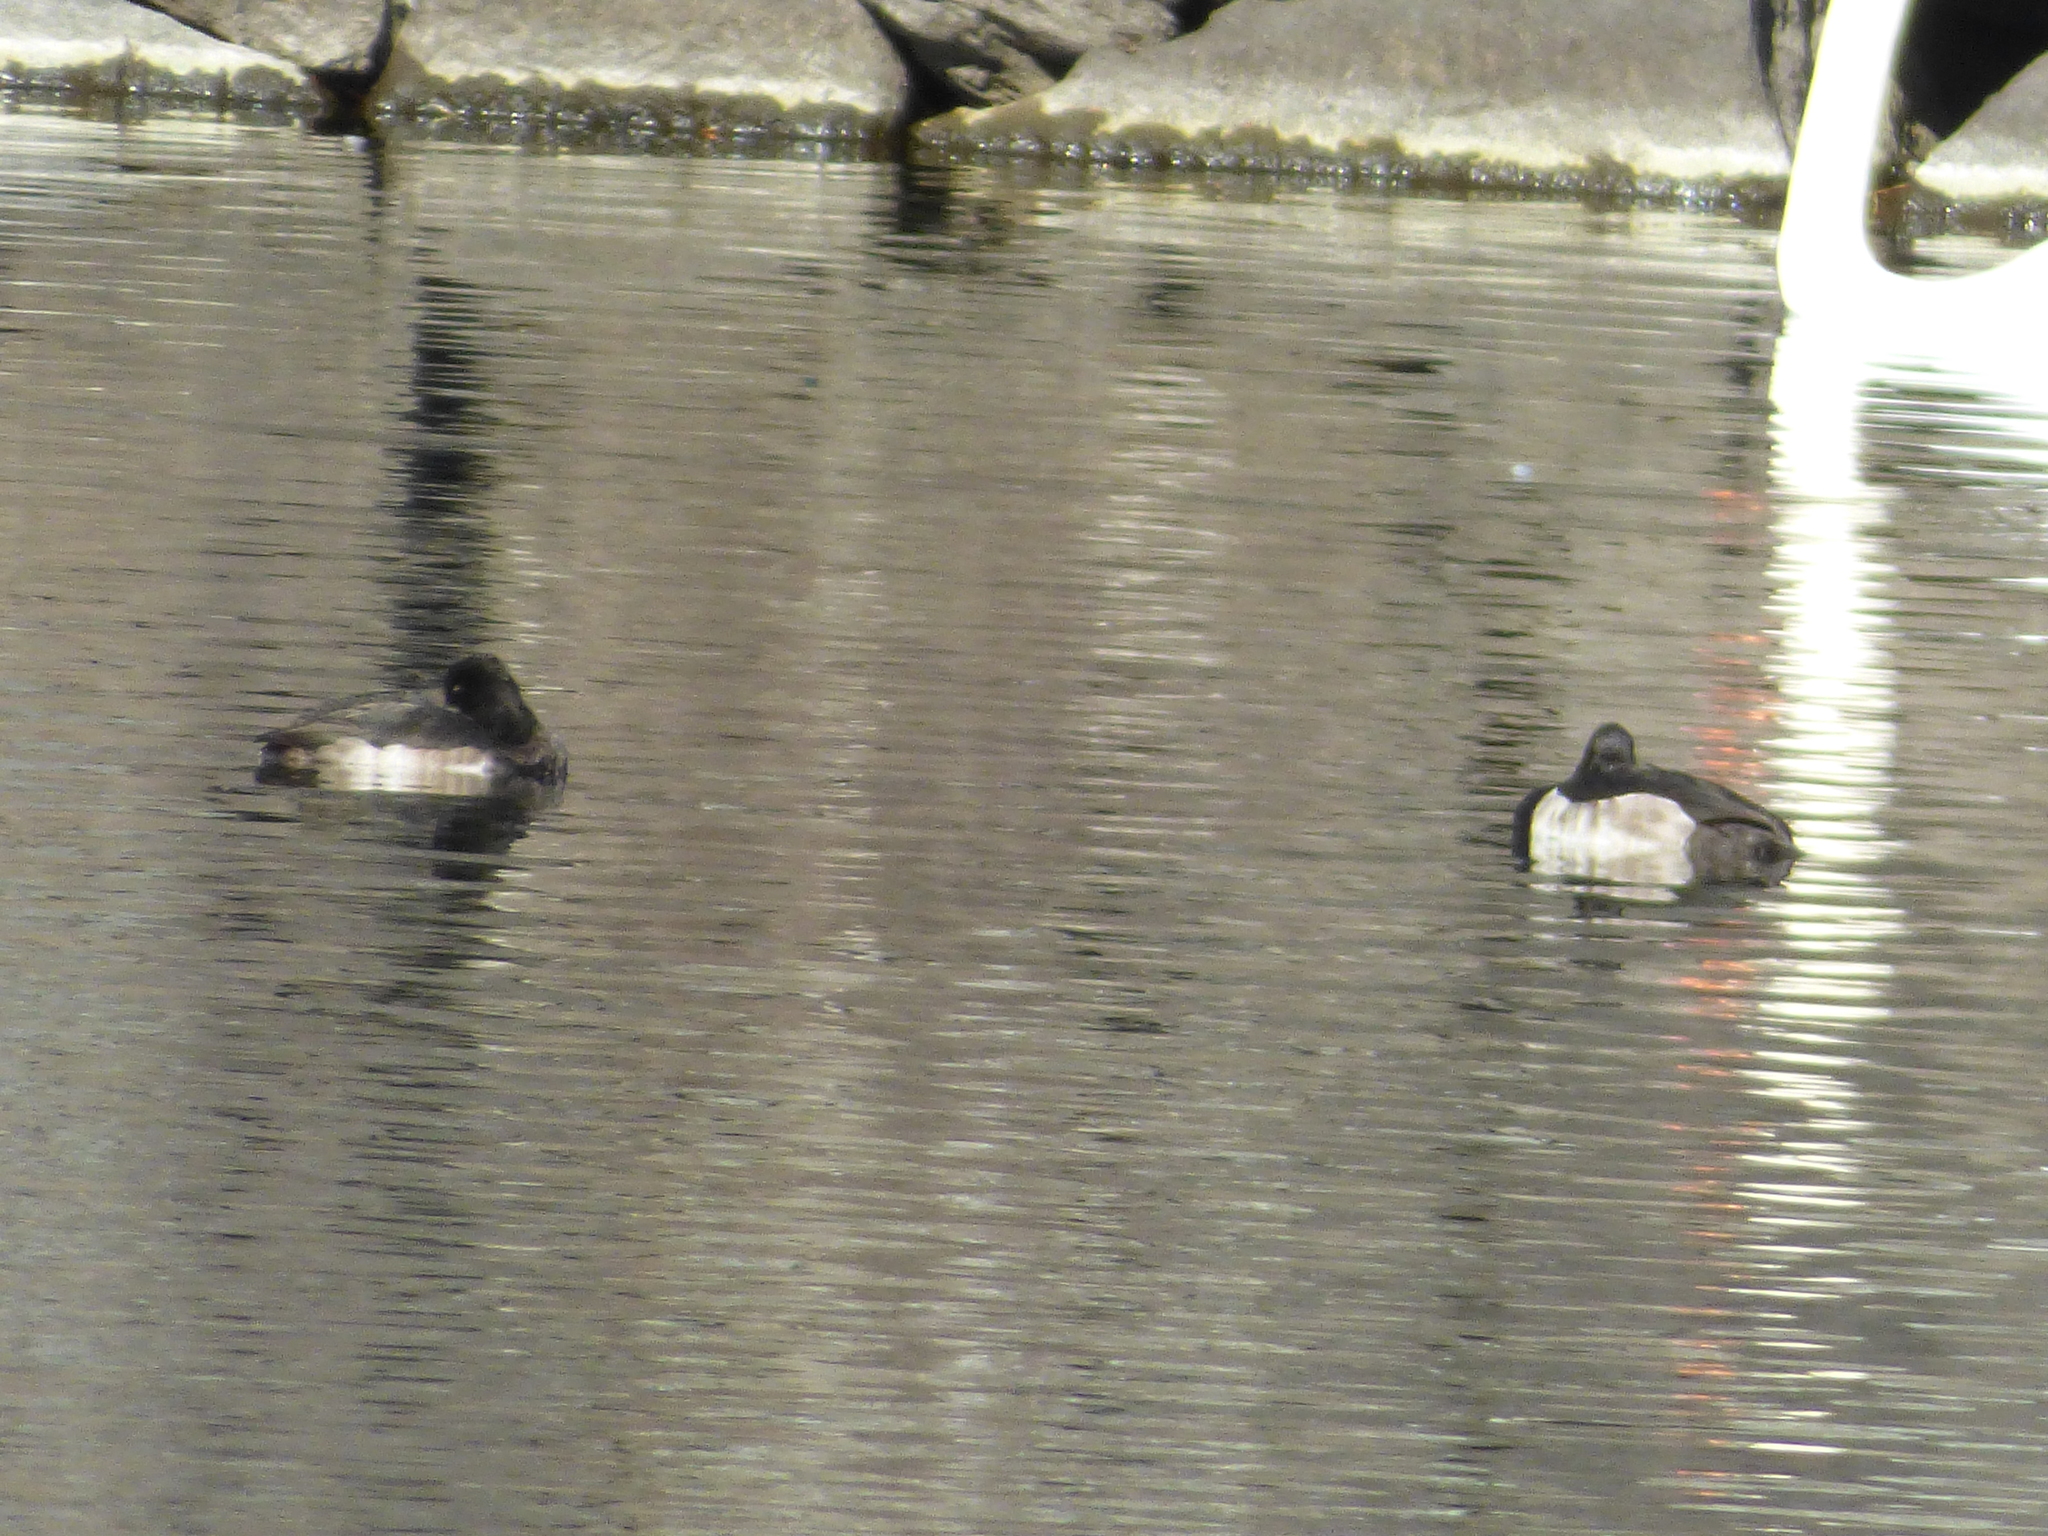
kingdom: Animalia
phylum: Chordata
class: Aves
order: Anseriformes
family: Anatidae
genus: Aythya
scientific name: Aythya fuligula
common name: Tufted duck
